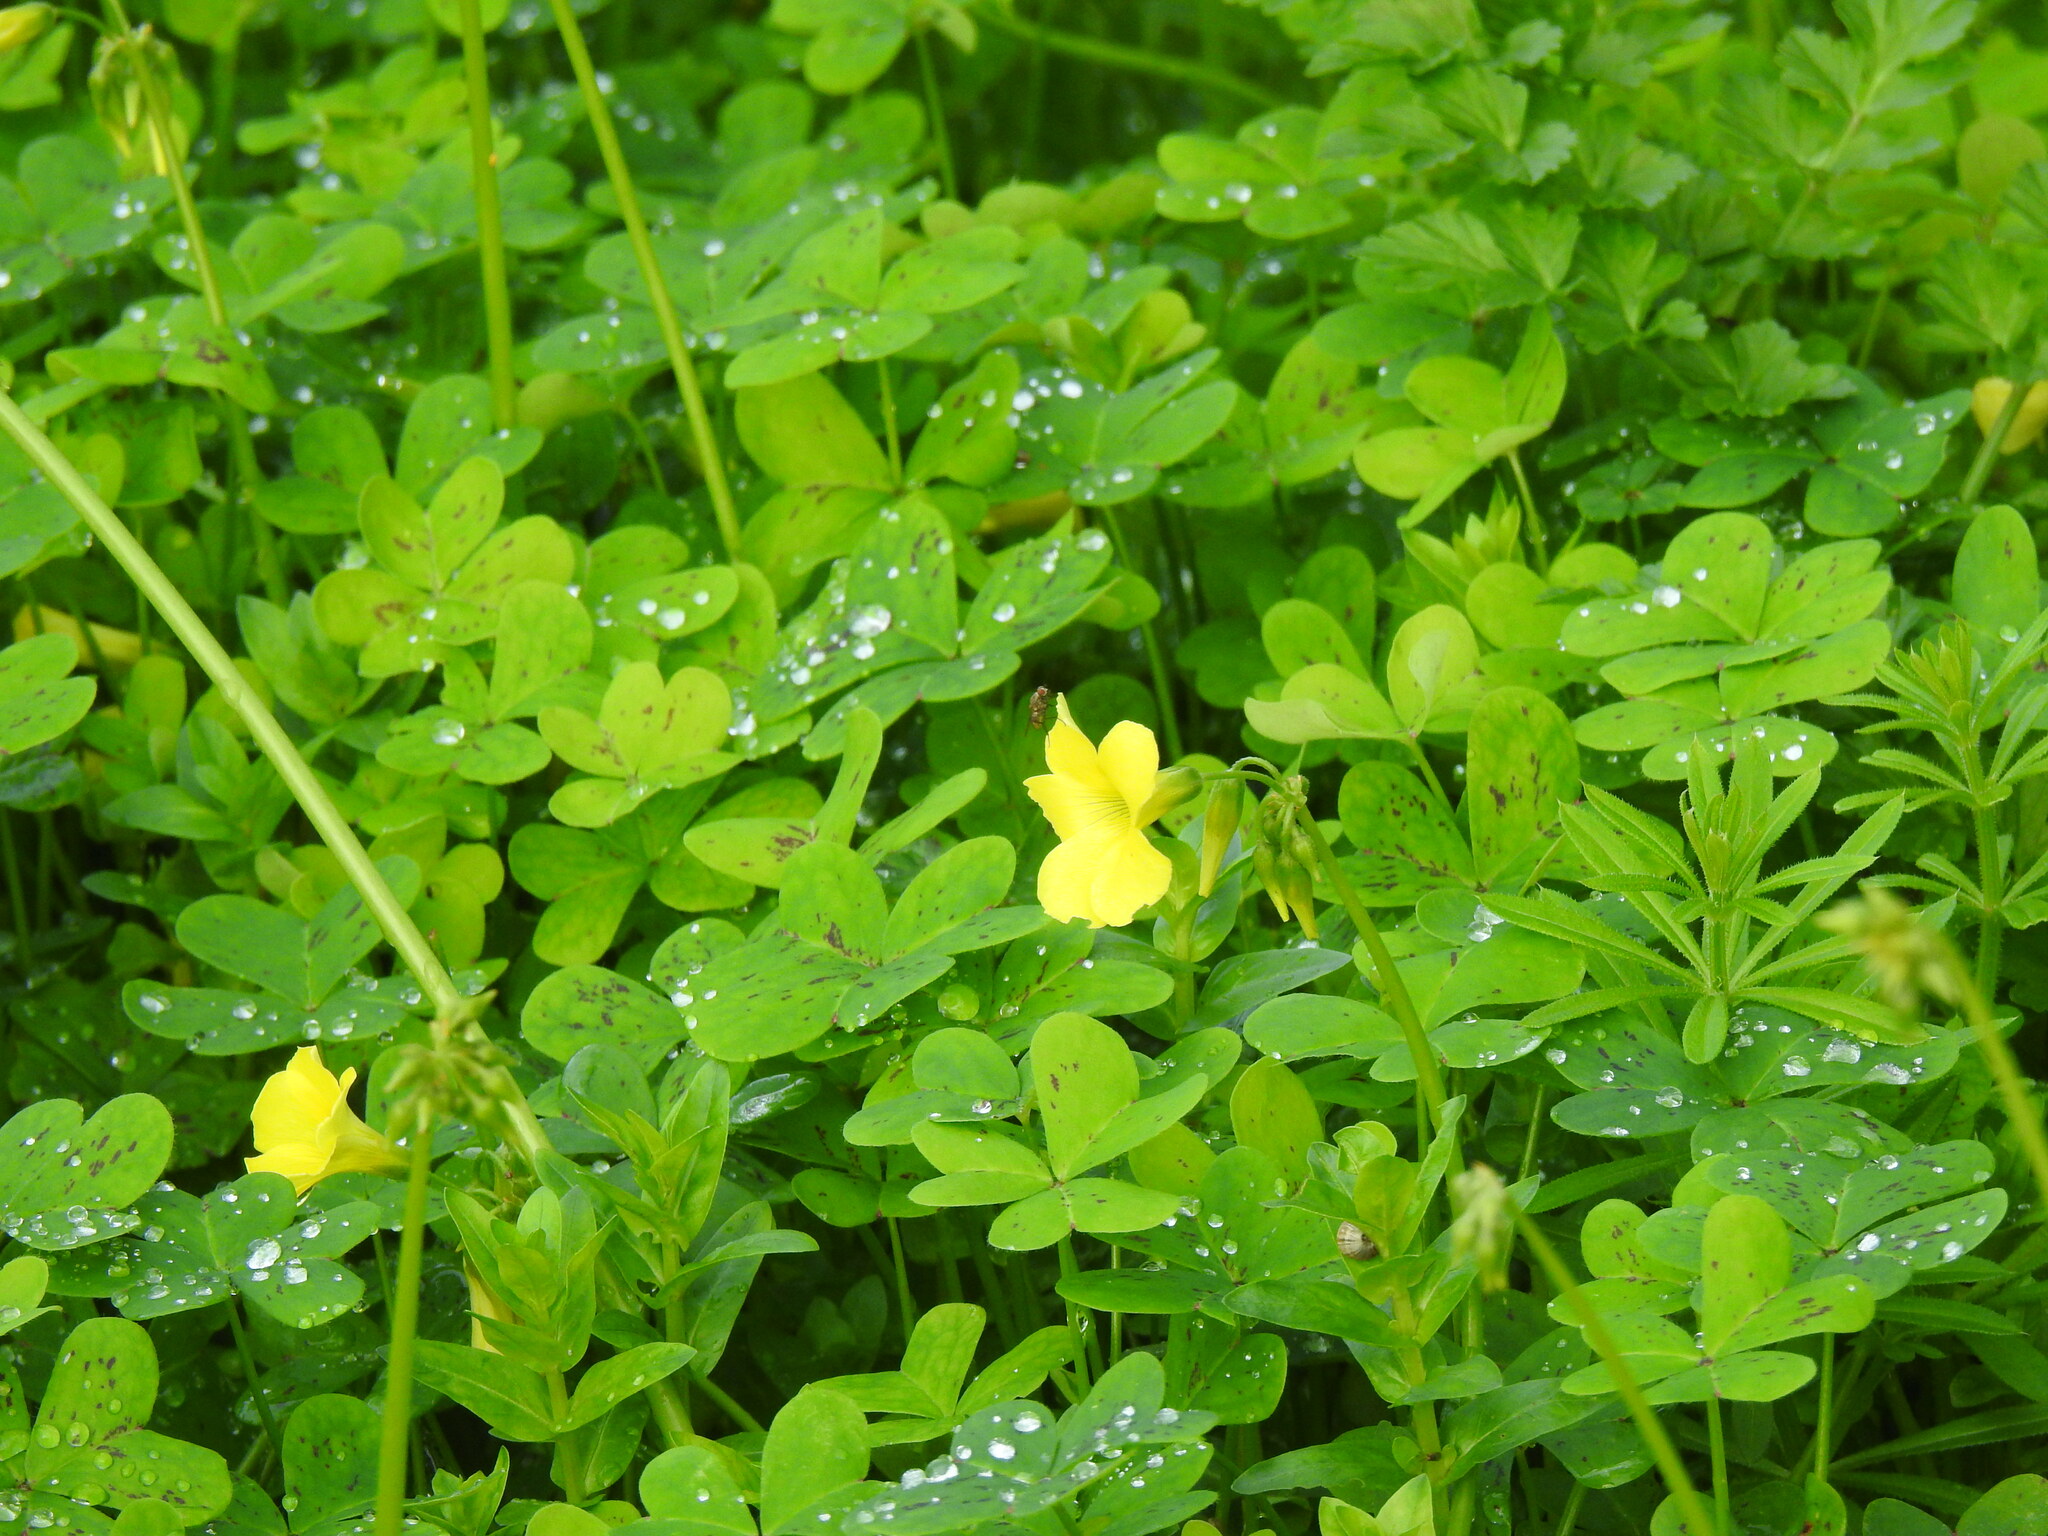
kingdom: Plantae
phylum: Tracheophyta
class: Magnoliopsida
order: Oxalidales
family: Oxalidaceae
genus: Oxalis
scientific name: Oxalis pes-caprae
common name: Bermuda-buttercup
